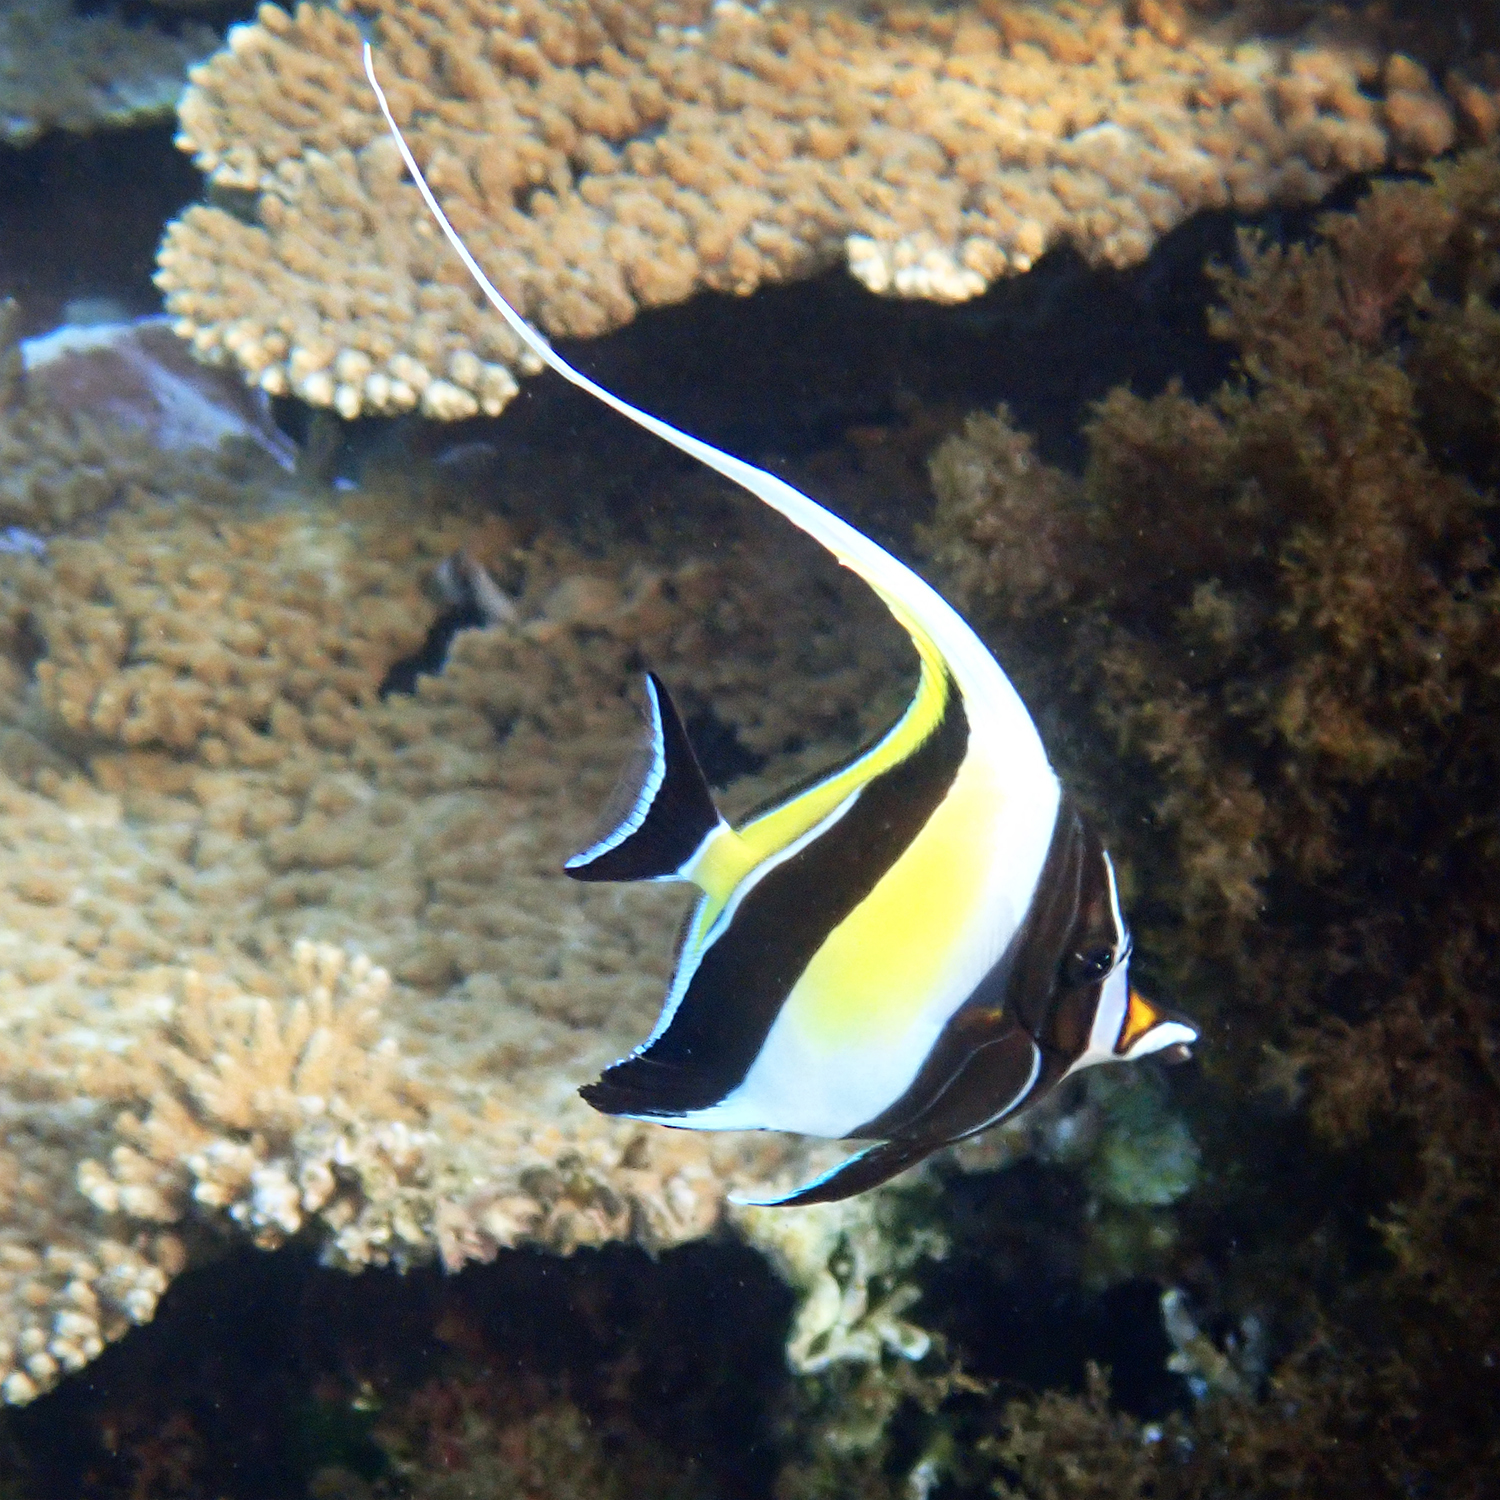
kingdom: Animalia
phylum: Chordata
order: Perciformes
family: Zanclidae
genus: Zanclus
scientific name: Zanclus cornutus
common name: Moorish idol
